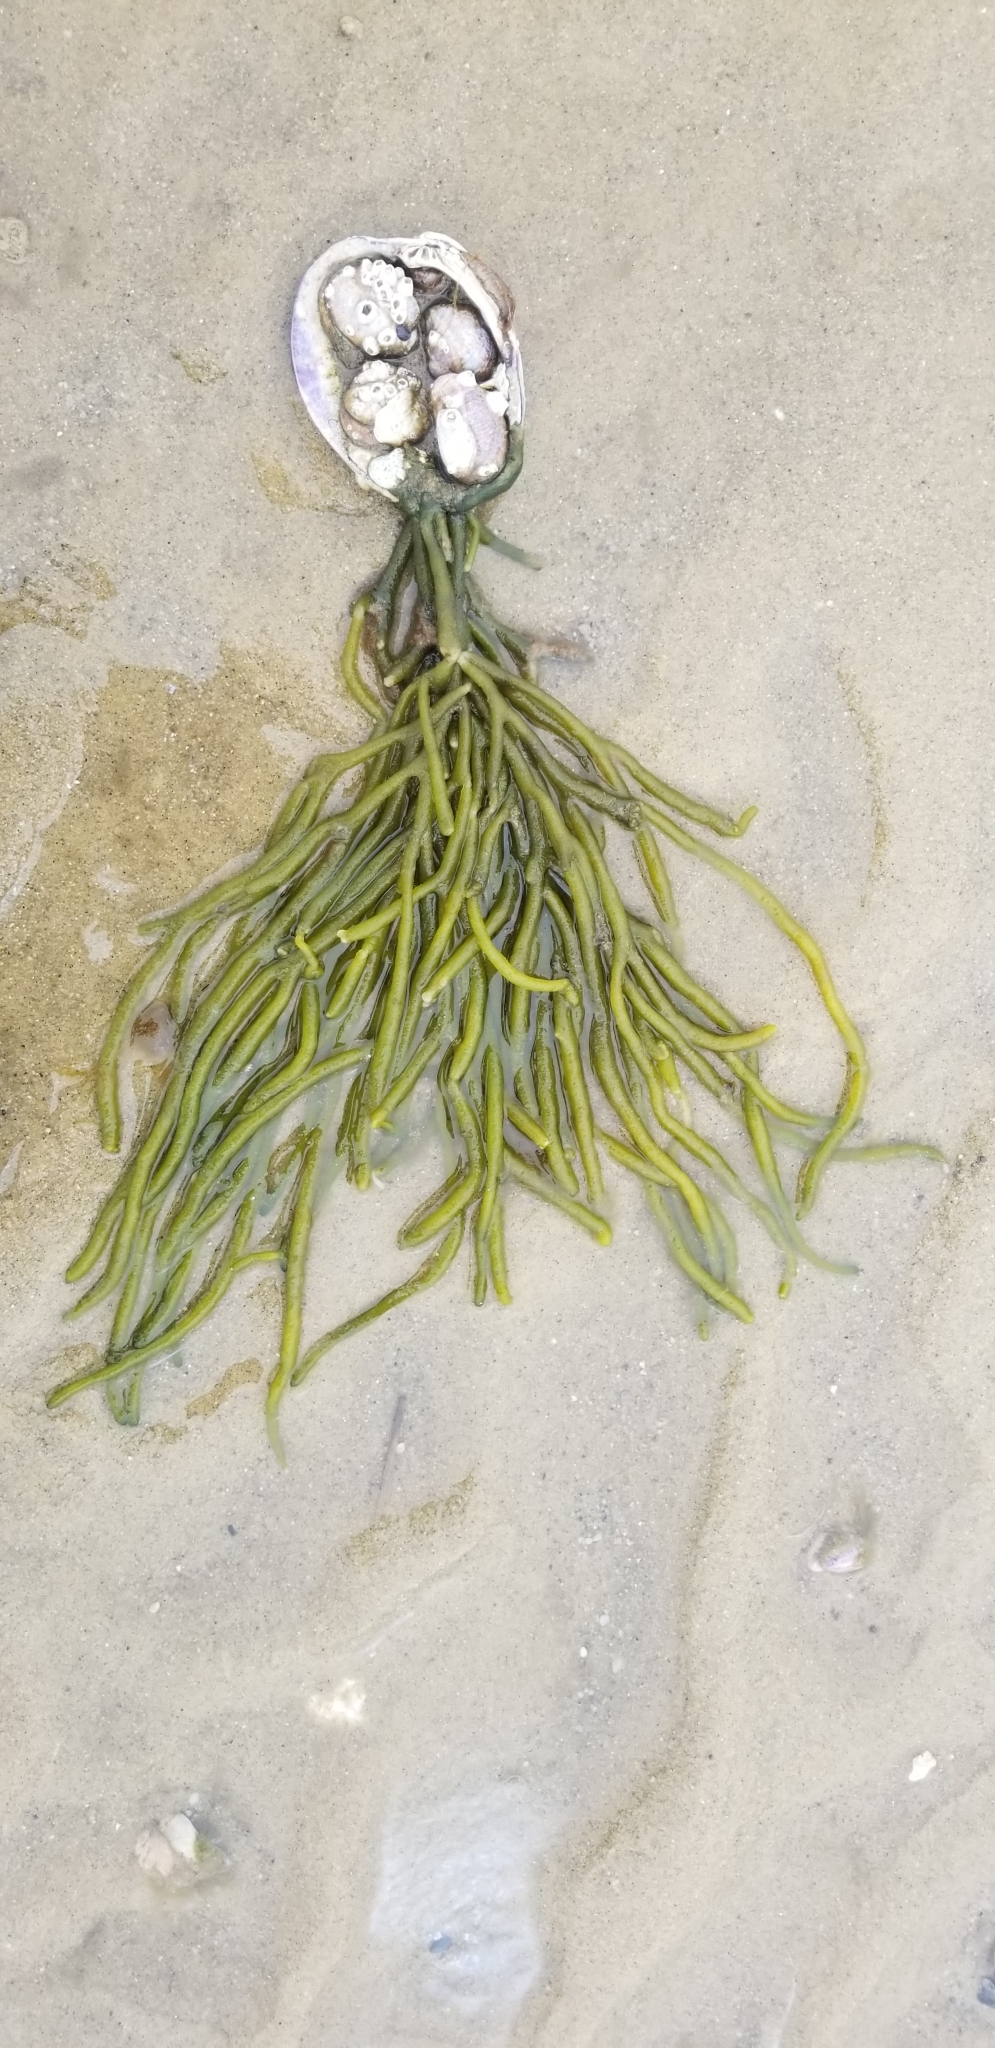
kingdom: Plantae
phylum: Chlorophyta
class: Ulvophyceae
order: Bryopsidales
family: Codiaceae
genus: Codium
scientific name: Codium fragile
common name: Dead man's fingers
